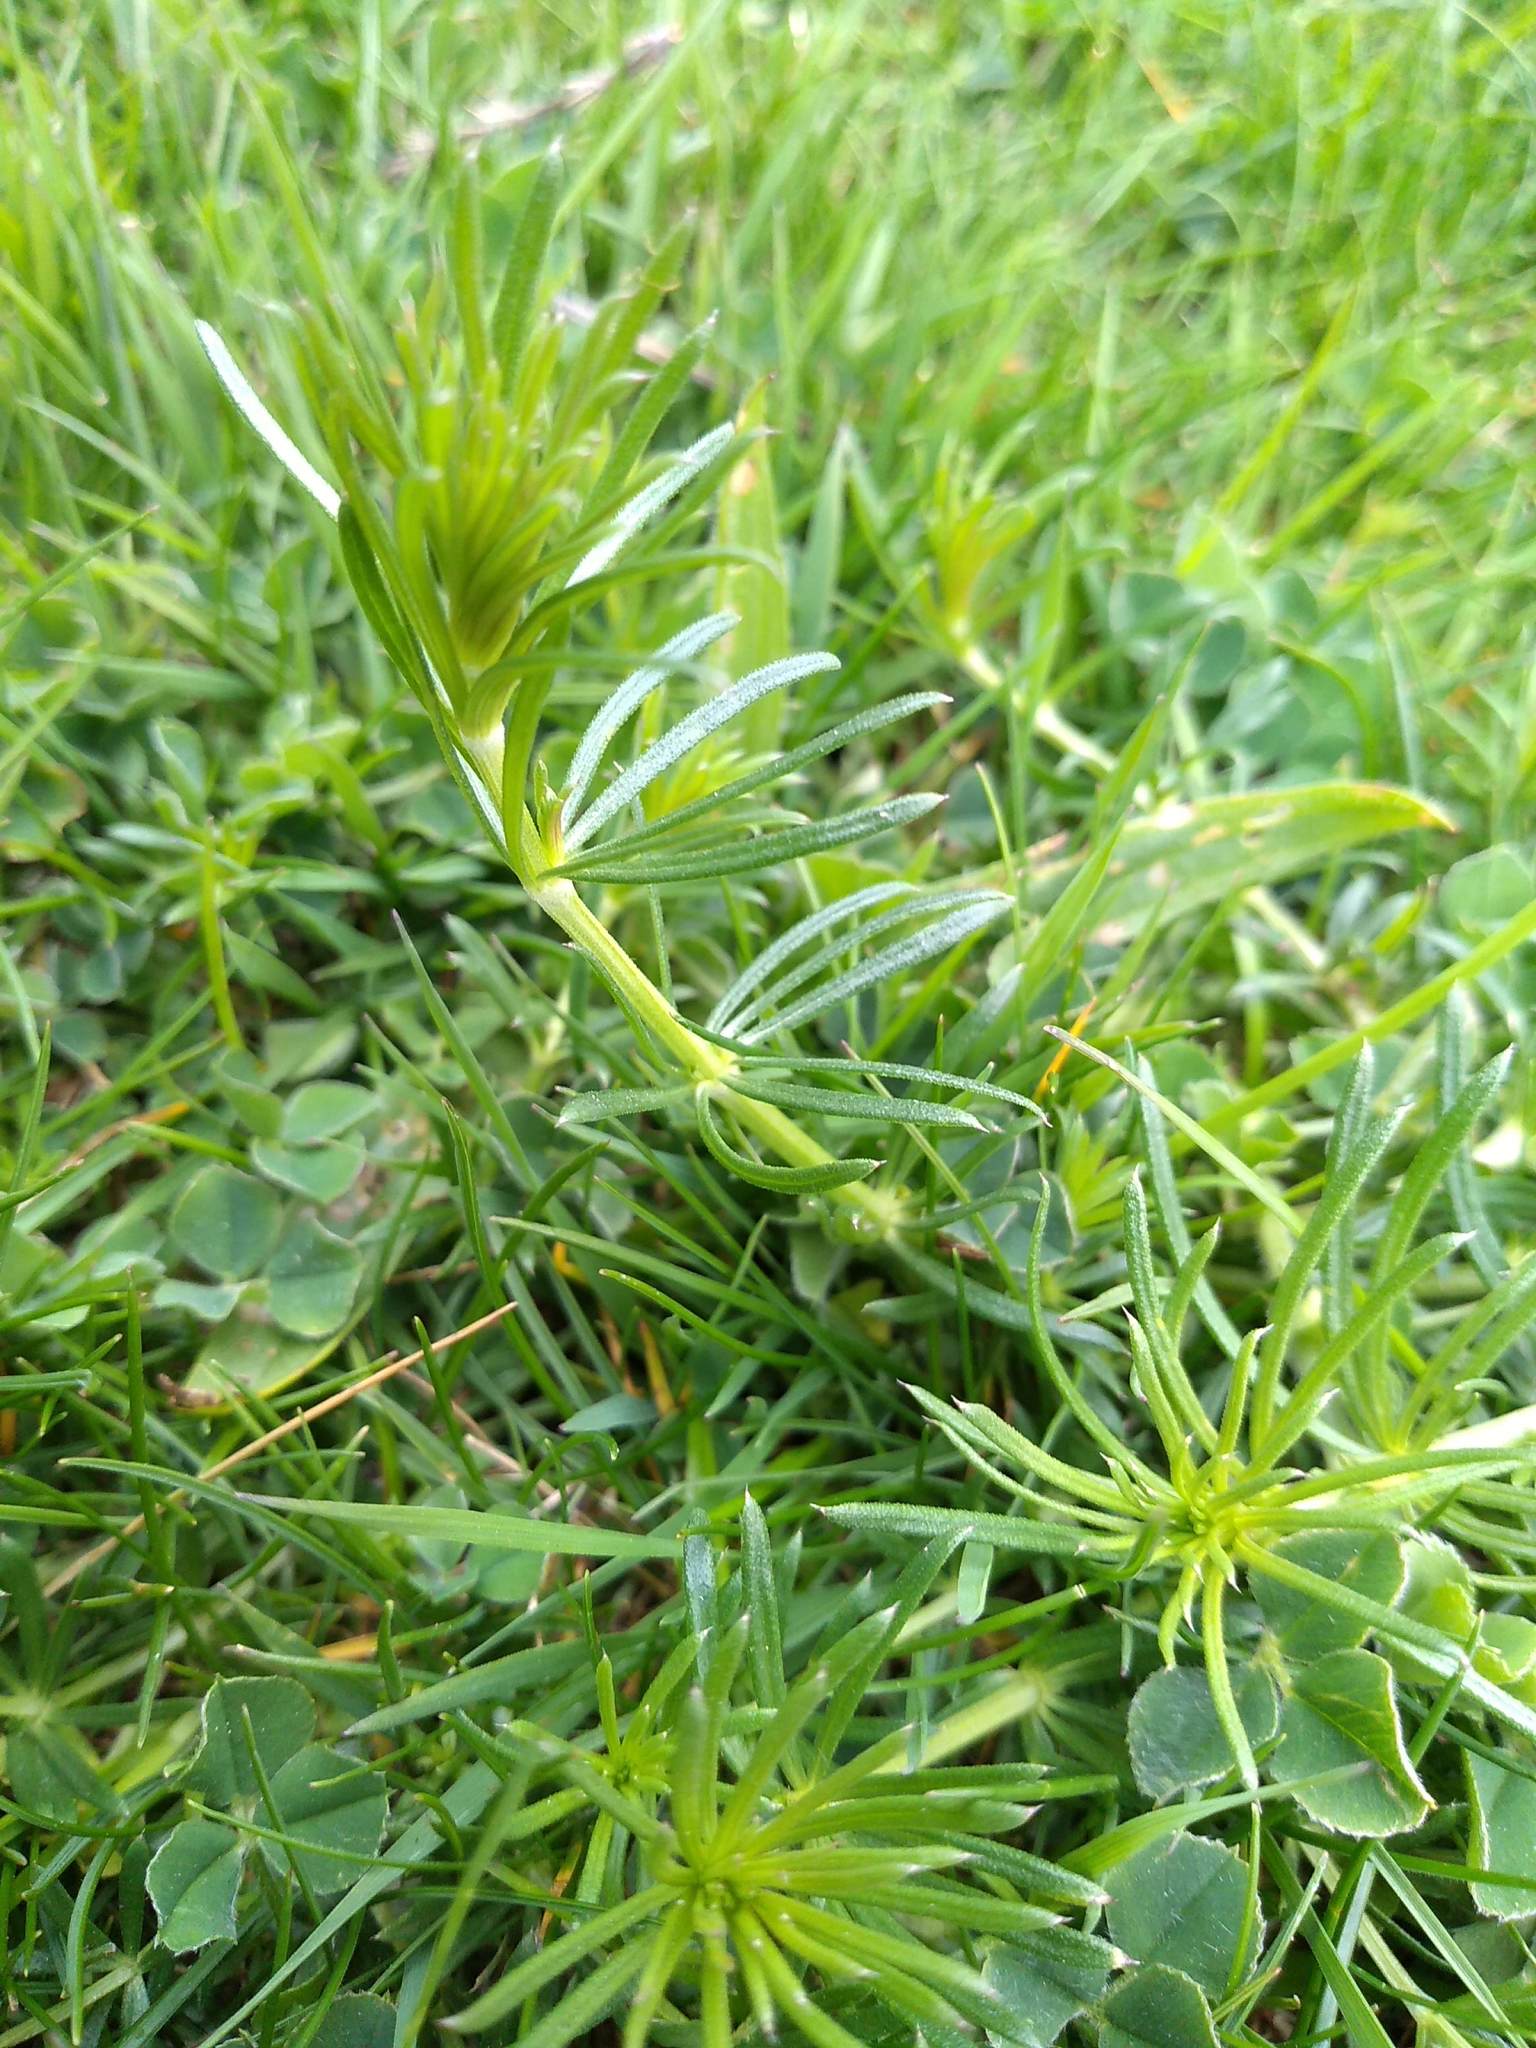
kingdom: Plantae
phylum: Tracheophyta
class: Magnoliopsida
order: Gentianales
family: Rubiaceae
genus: Galium
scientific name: Galium verum
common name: Lady's bedstraw
